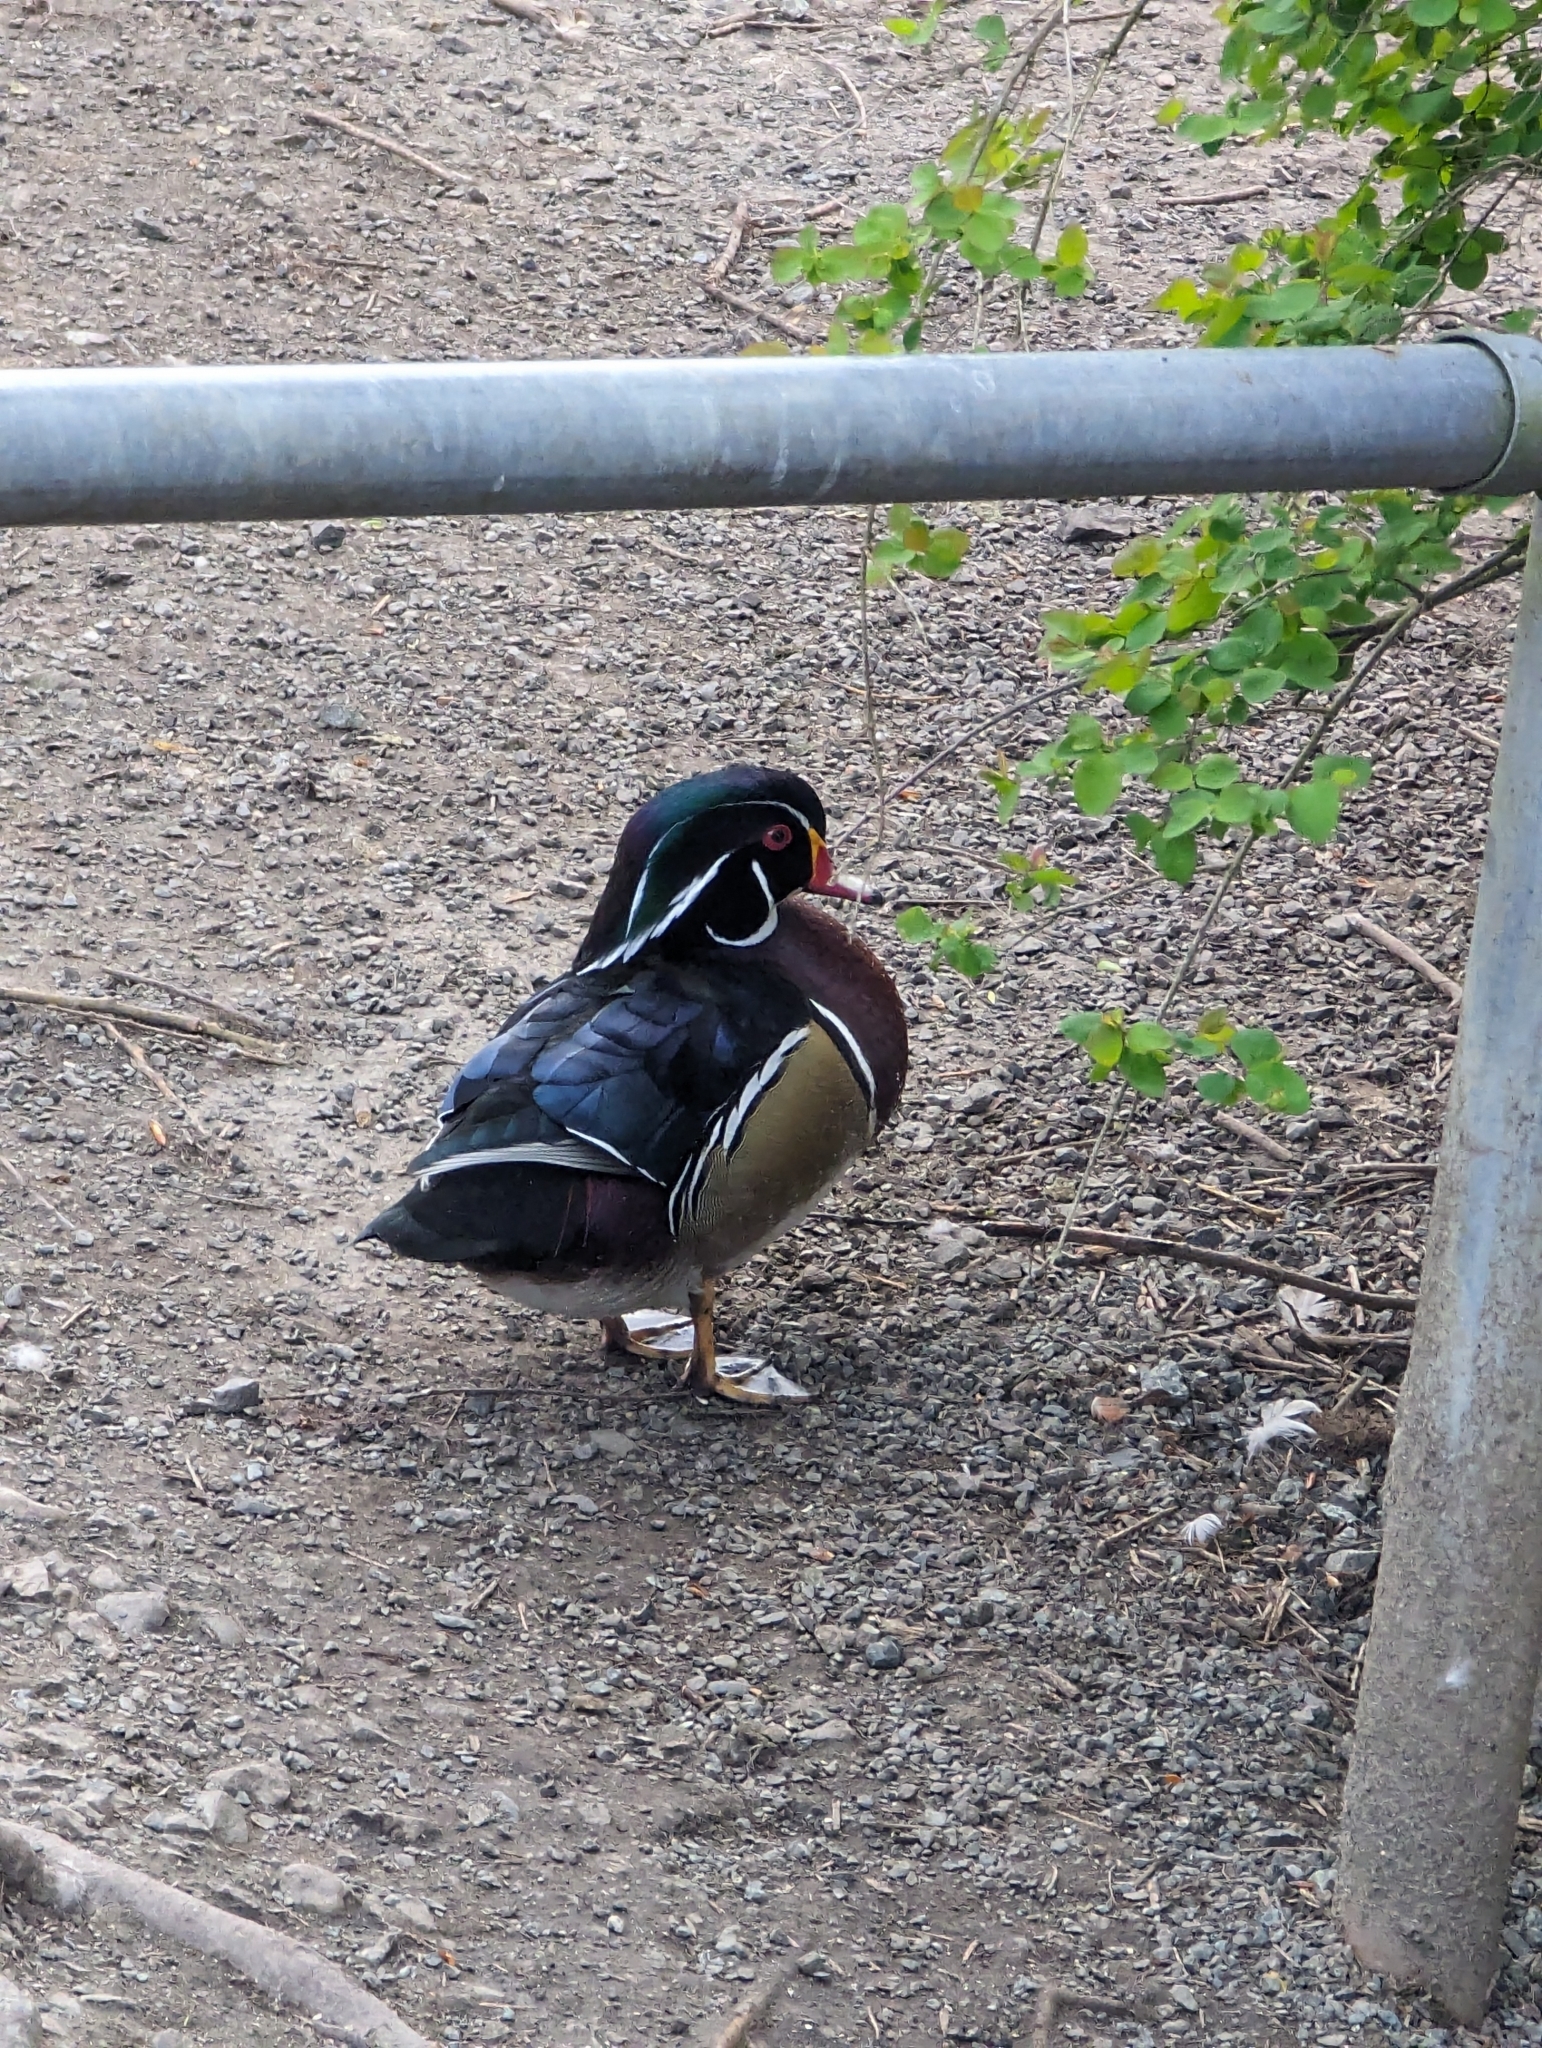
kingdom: Animalia
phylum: Chordata
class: Aves
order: Anseriformes
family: Anatidae
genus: Aix
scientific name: Aix sponsa
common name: Wood duck
